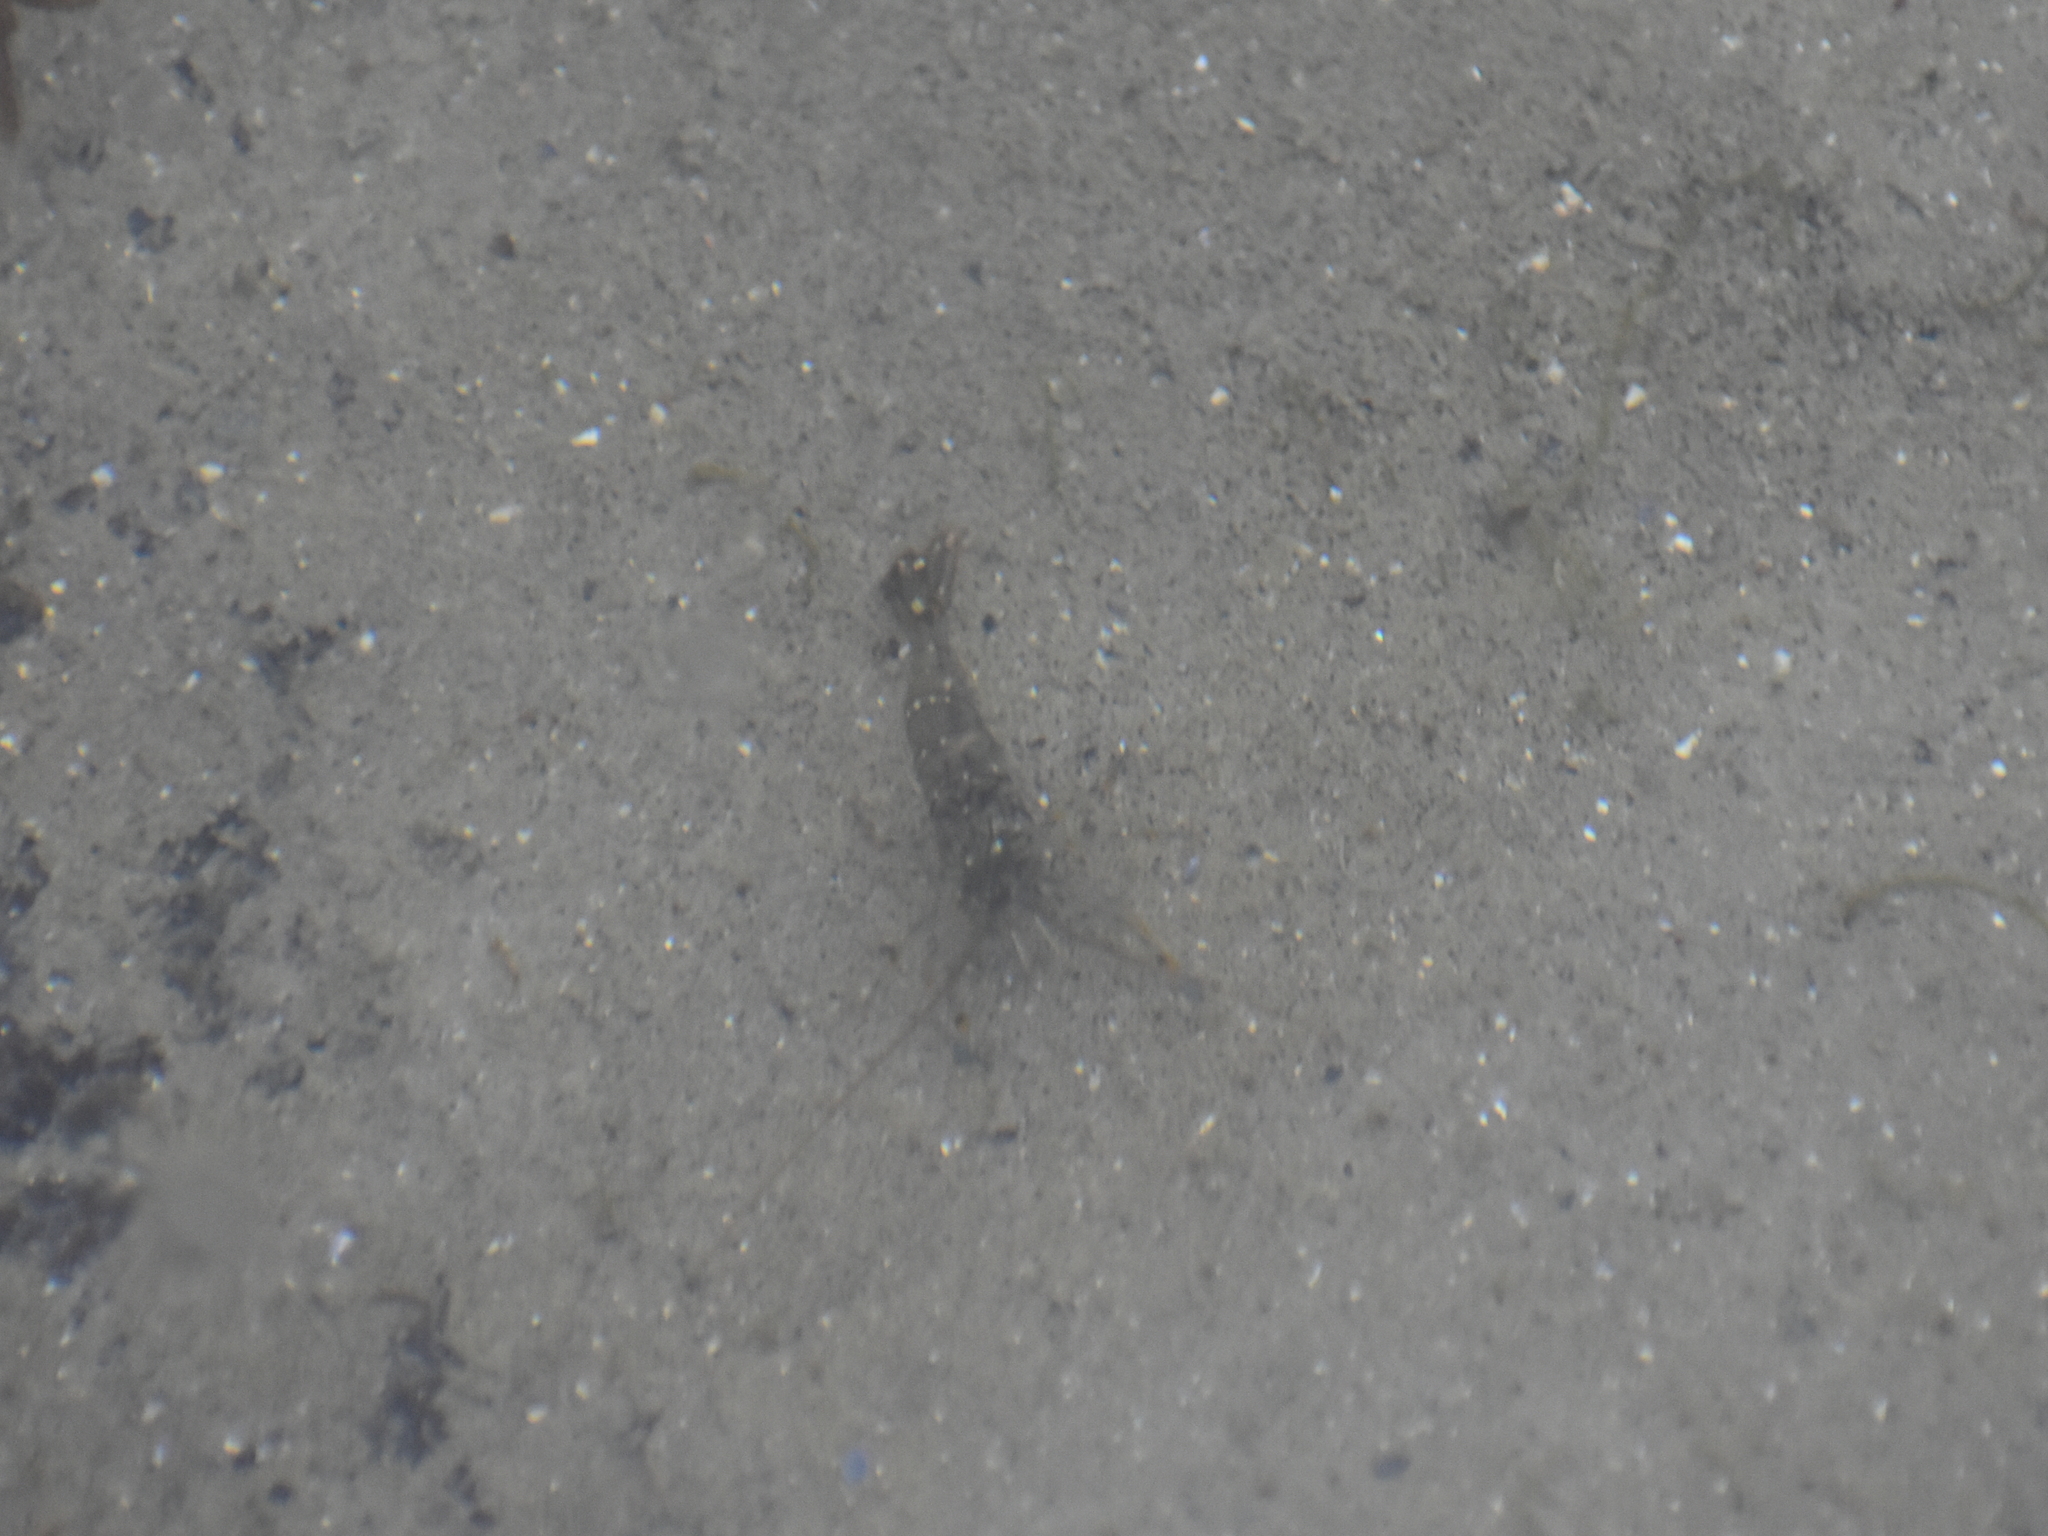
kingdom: Animalia
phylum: Arthropoda
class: Malacostraca
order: Decapoda
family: Palaemonidae
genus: Palaemon
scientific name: Palaemon elegans
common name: Grass prawm
